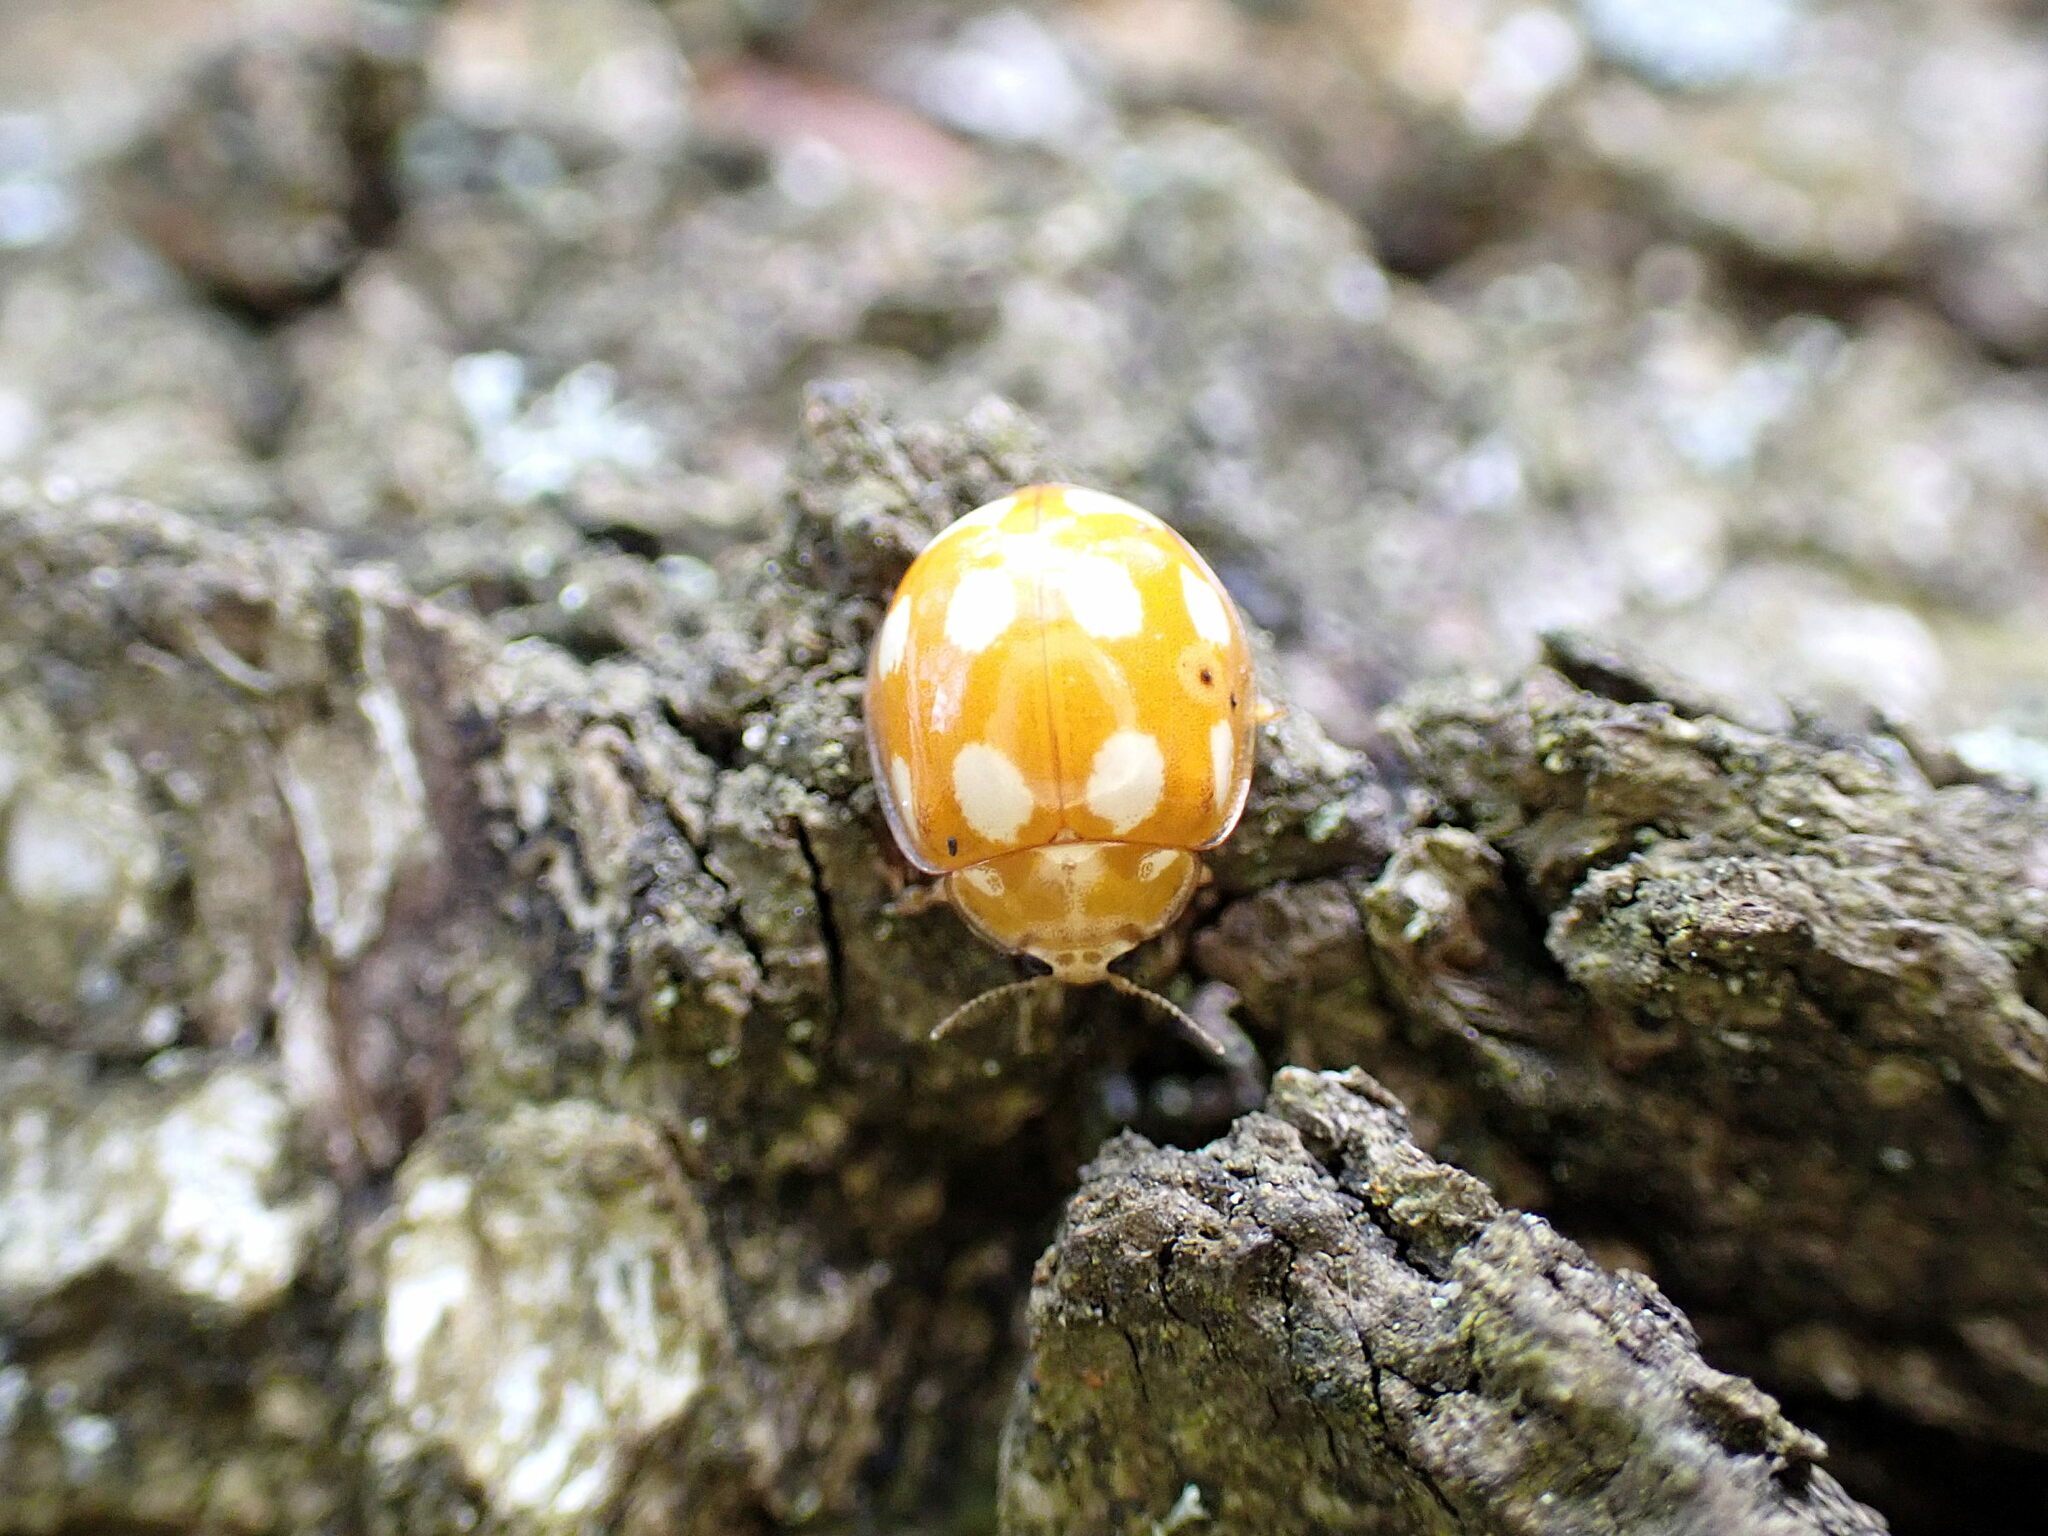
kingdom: Animalia
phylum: Arthropoda
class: Insecta
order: Coleoptera
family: Coccinellidae
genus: Calvia
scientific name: Calvia decemguttata
